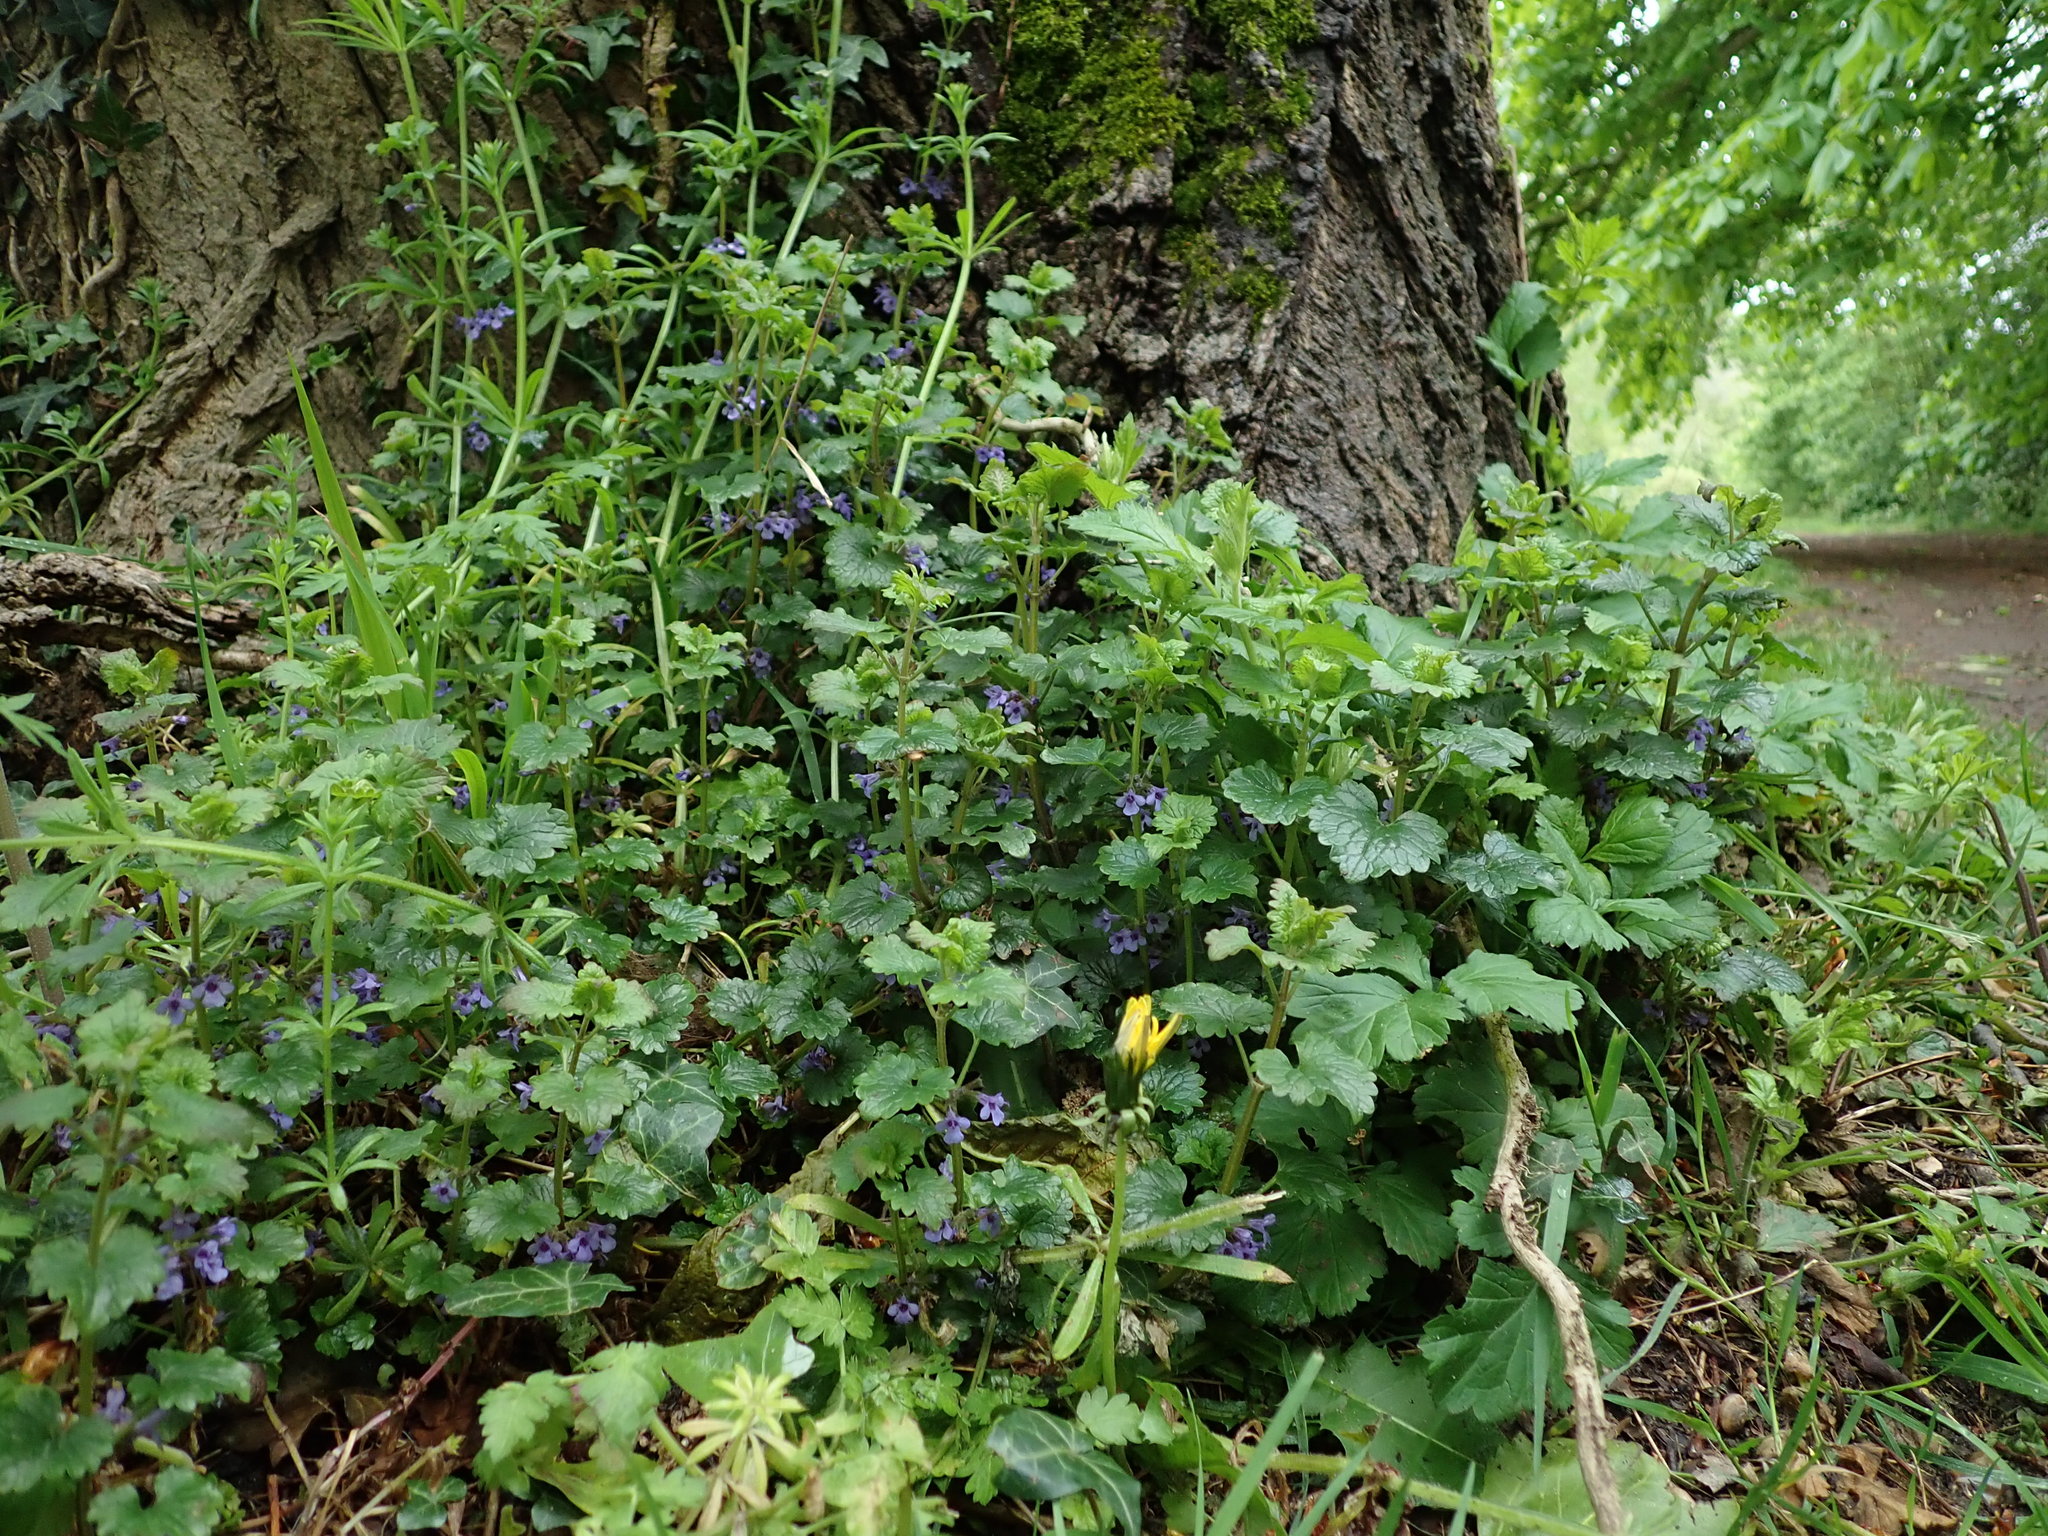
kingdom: Plantae
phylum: Tracheophyta
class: Magnoliopsida
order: Lamiales
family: Lamiaceae
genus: Glechoma
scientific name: Glechoma hederacea
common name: Ground ivy
